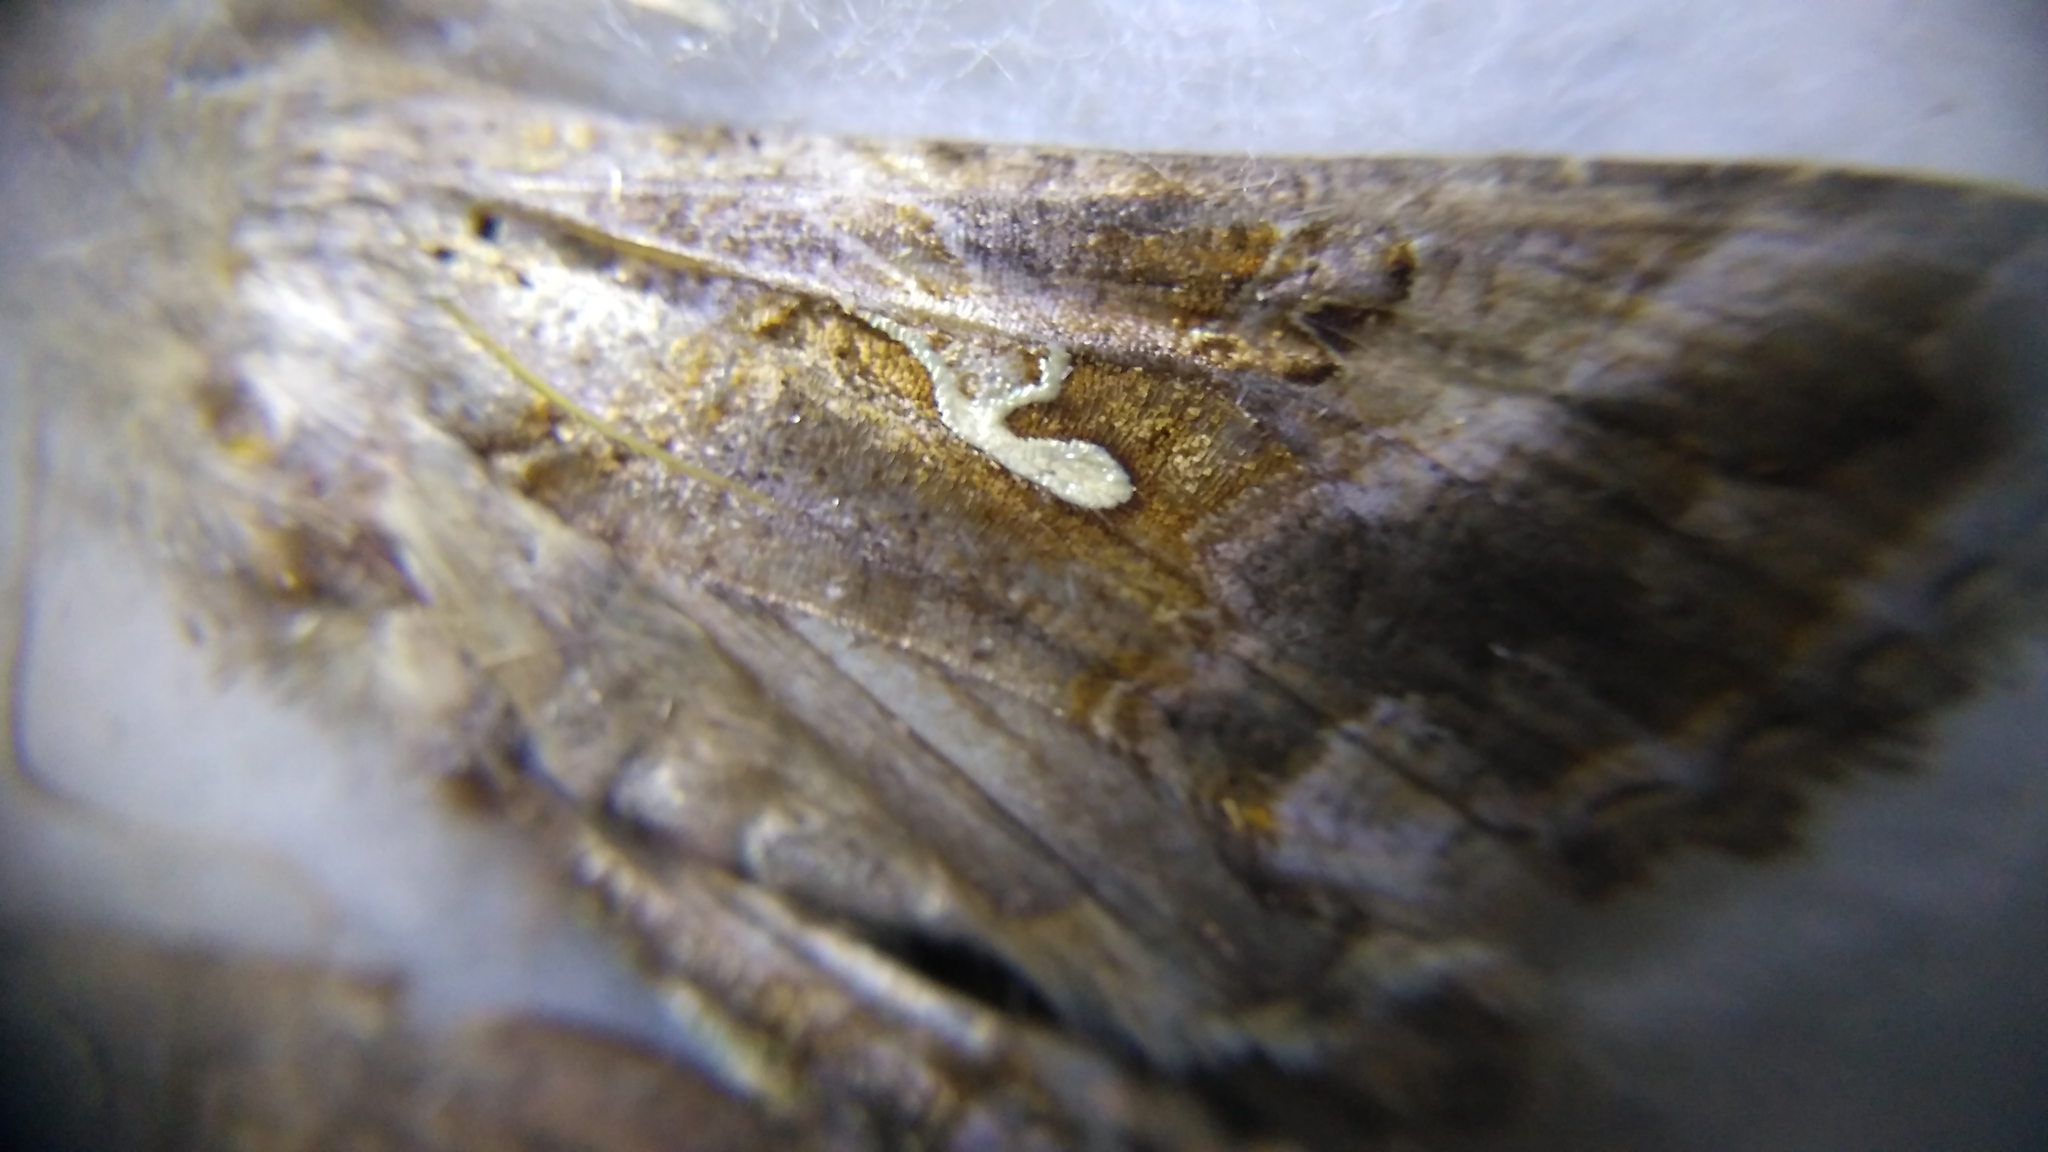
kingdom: Animalia
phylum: Arthropoda
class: Insecta
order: Lepidoptera
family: Noctuidae
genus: Autographa
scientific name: Autographa gamma
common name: Silver y
